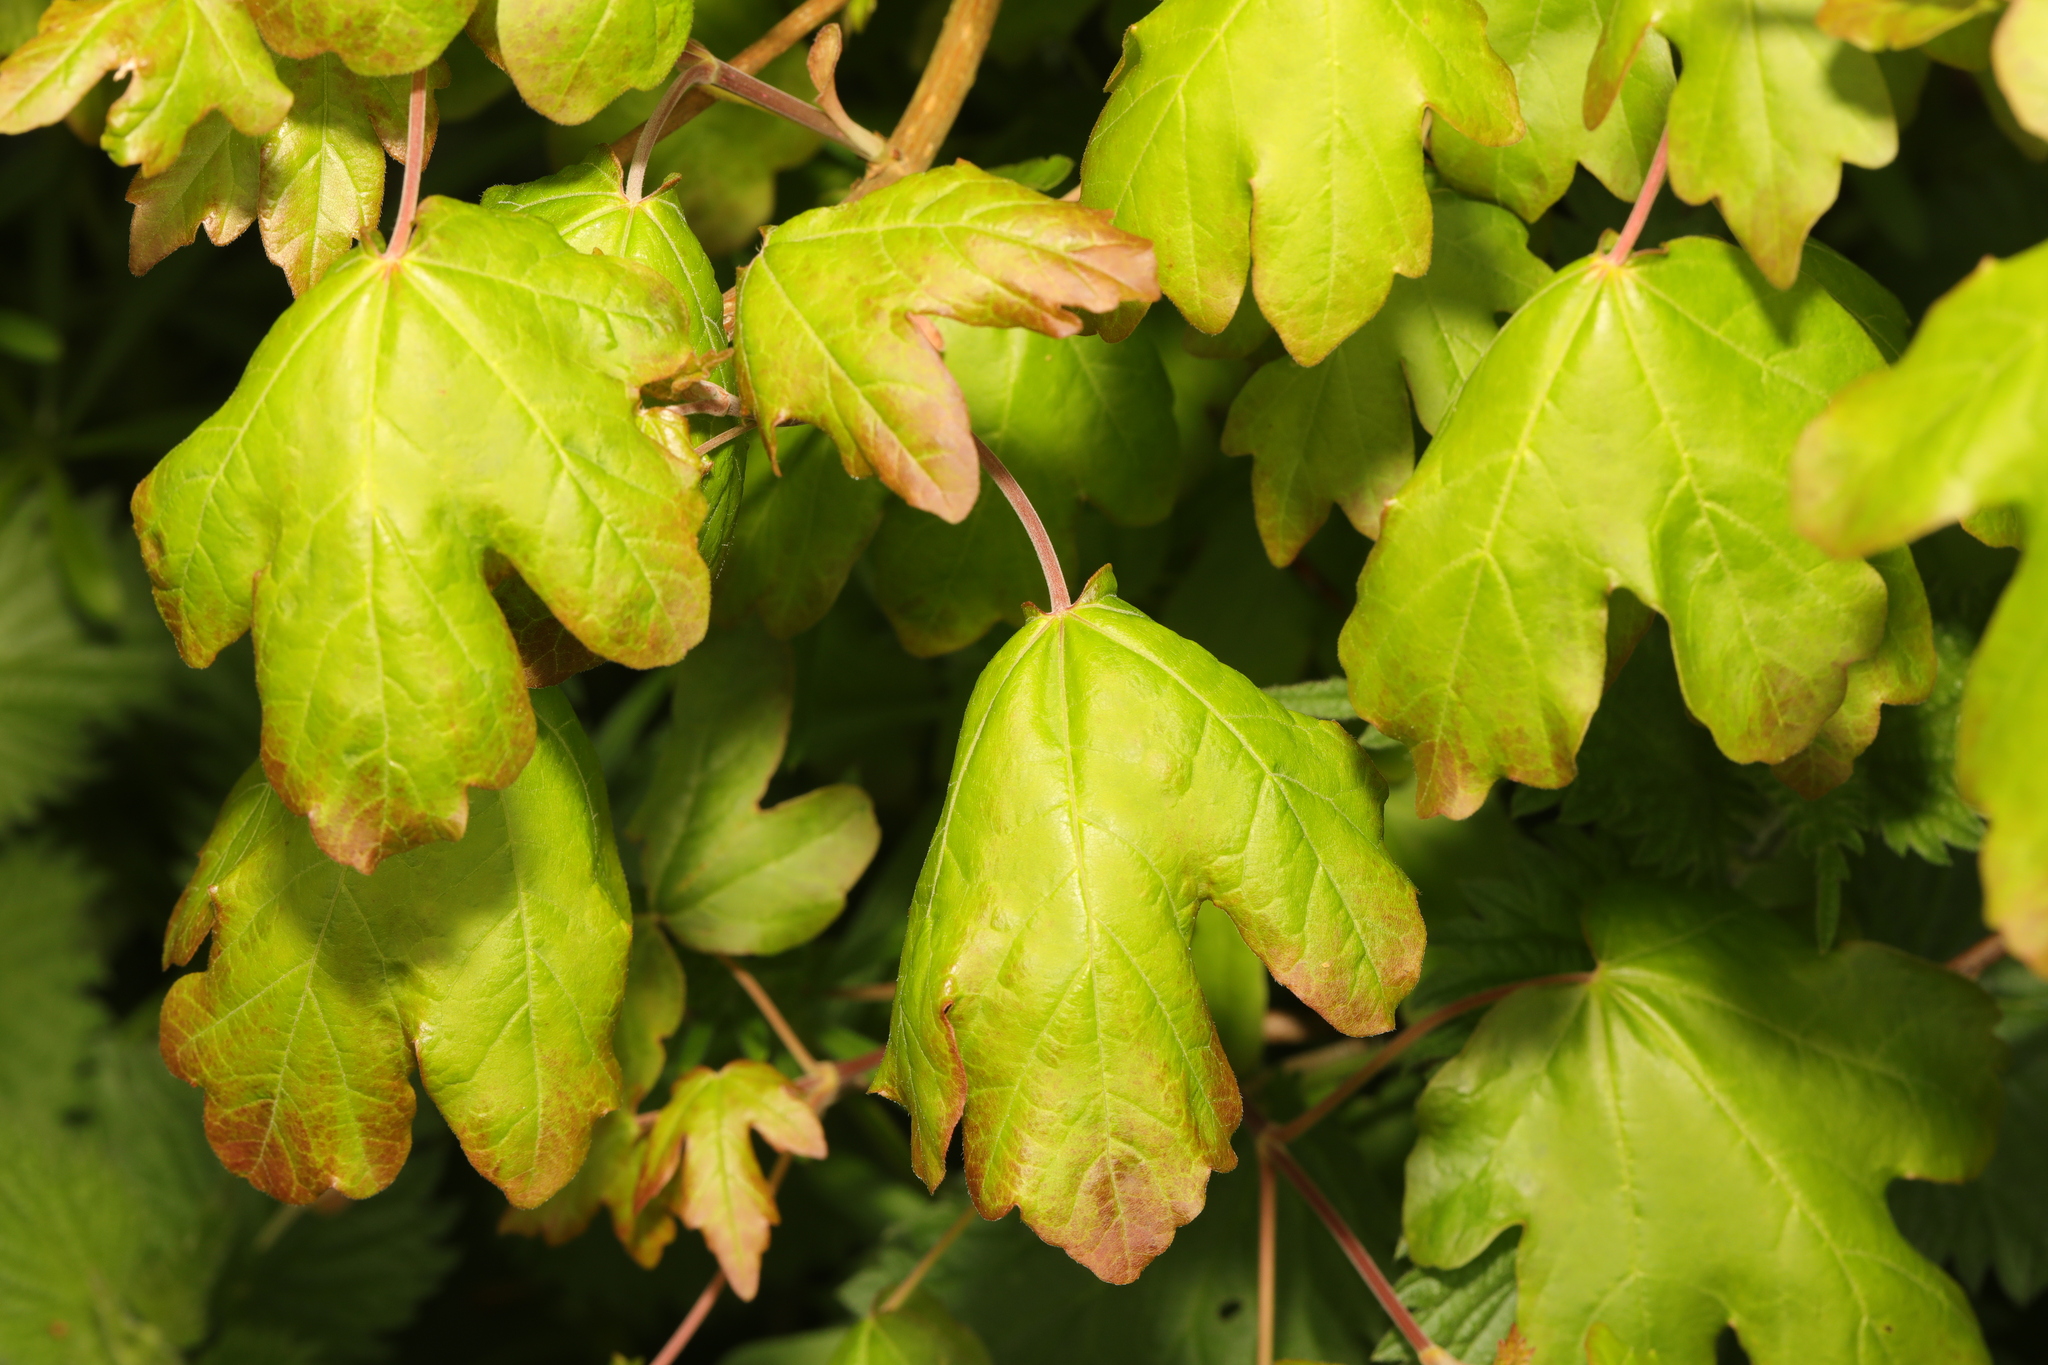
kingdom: Plantae
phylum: Tracheophyta
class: Magnoliopsida
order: Sapindales
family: Sapindaceae
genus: Acer
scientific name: Acer campestre
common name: Field maple
